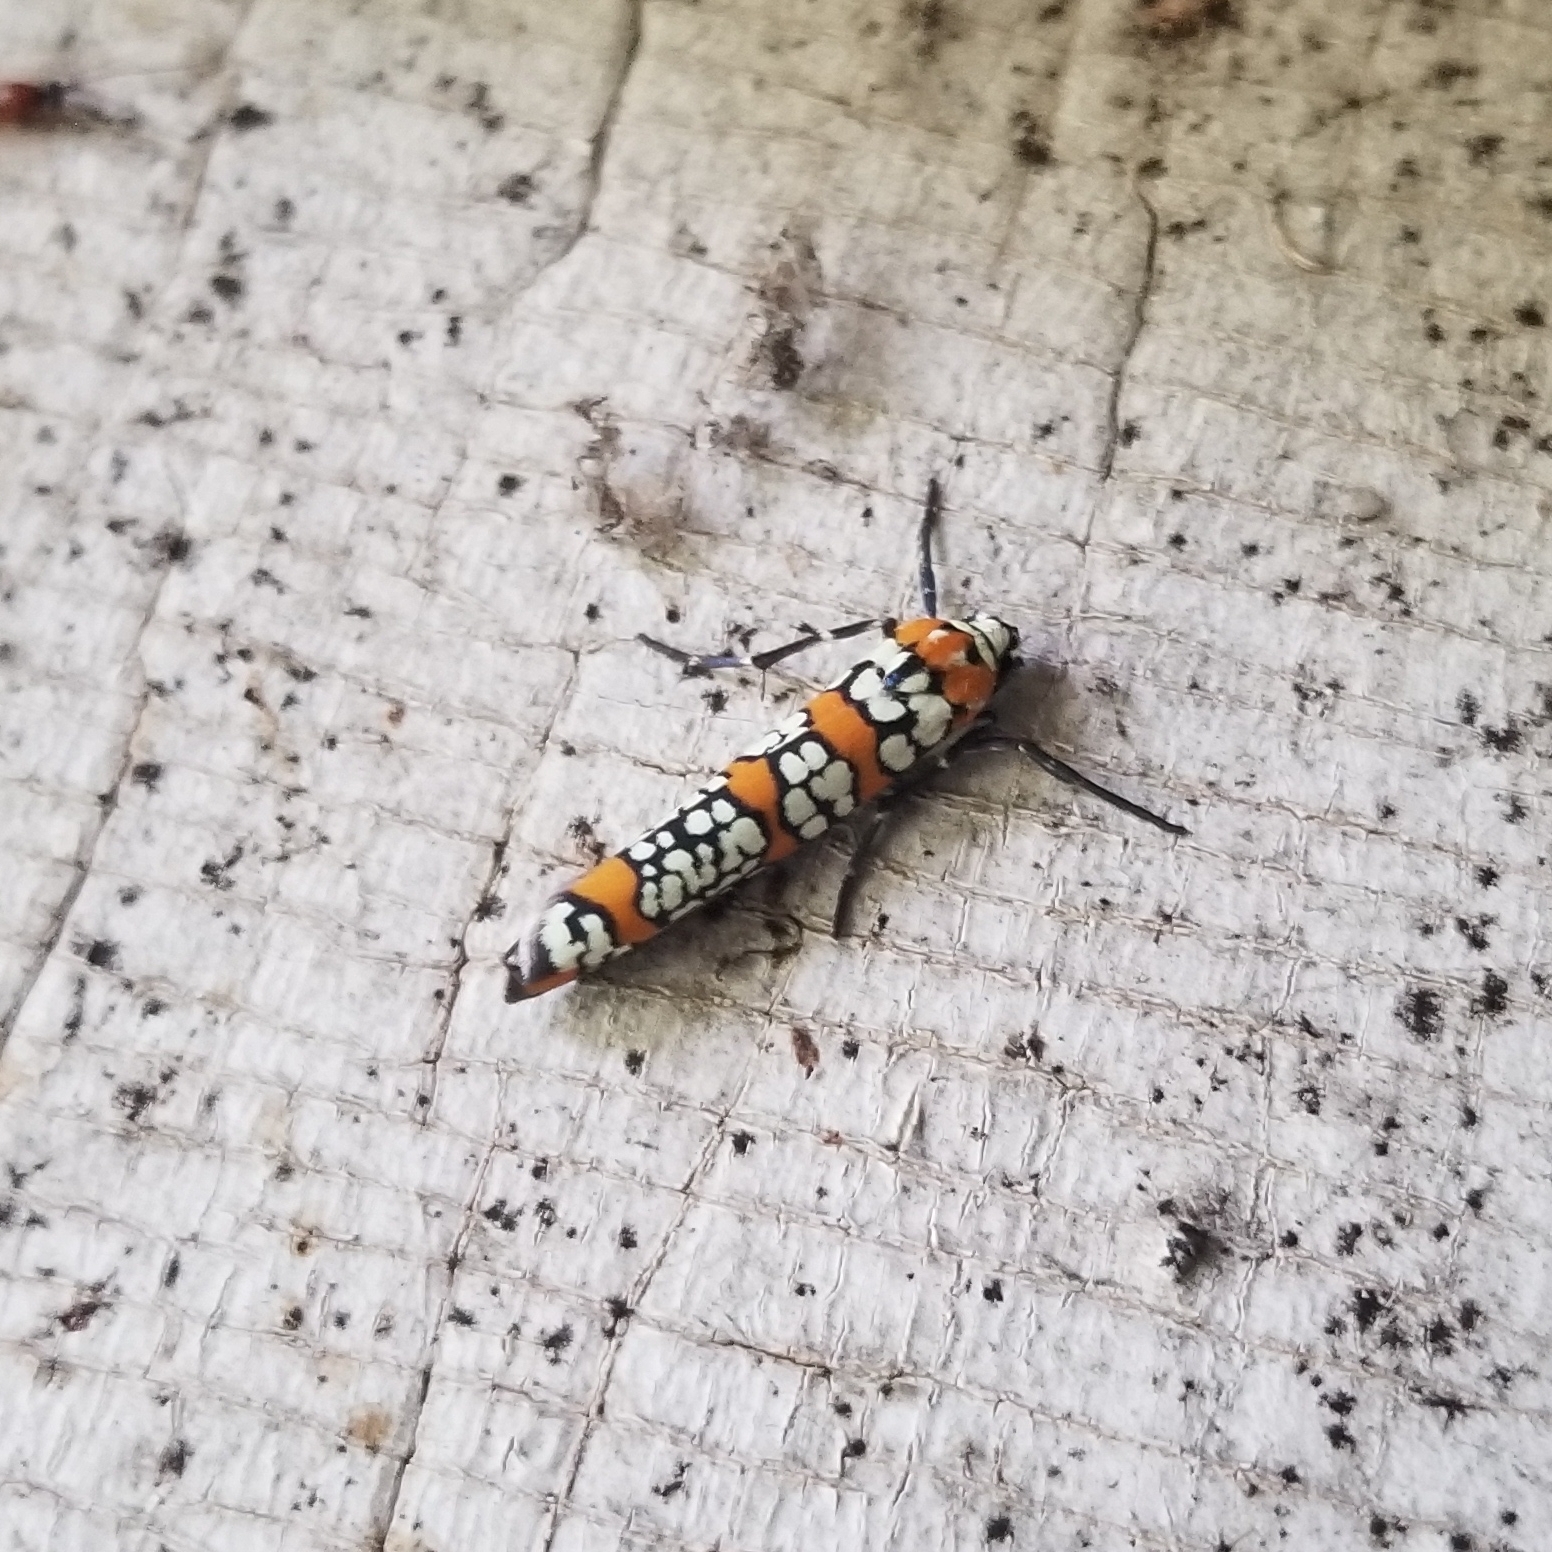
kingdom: Animalia
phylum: Arthropoda
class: Insecta
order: Lepidoptera
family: Attevidae
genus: Atteva
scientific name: Atteva punctella
